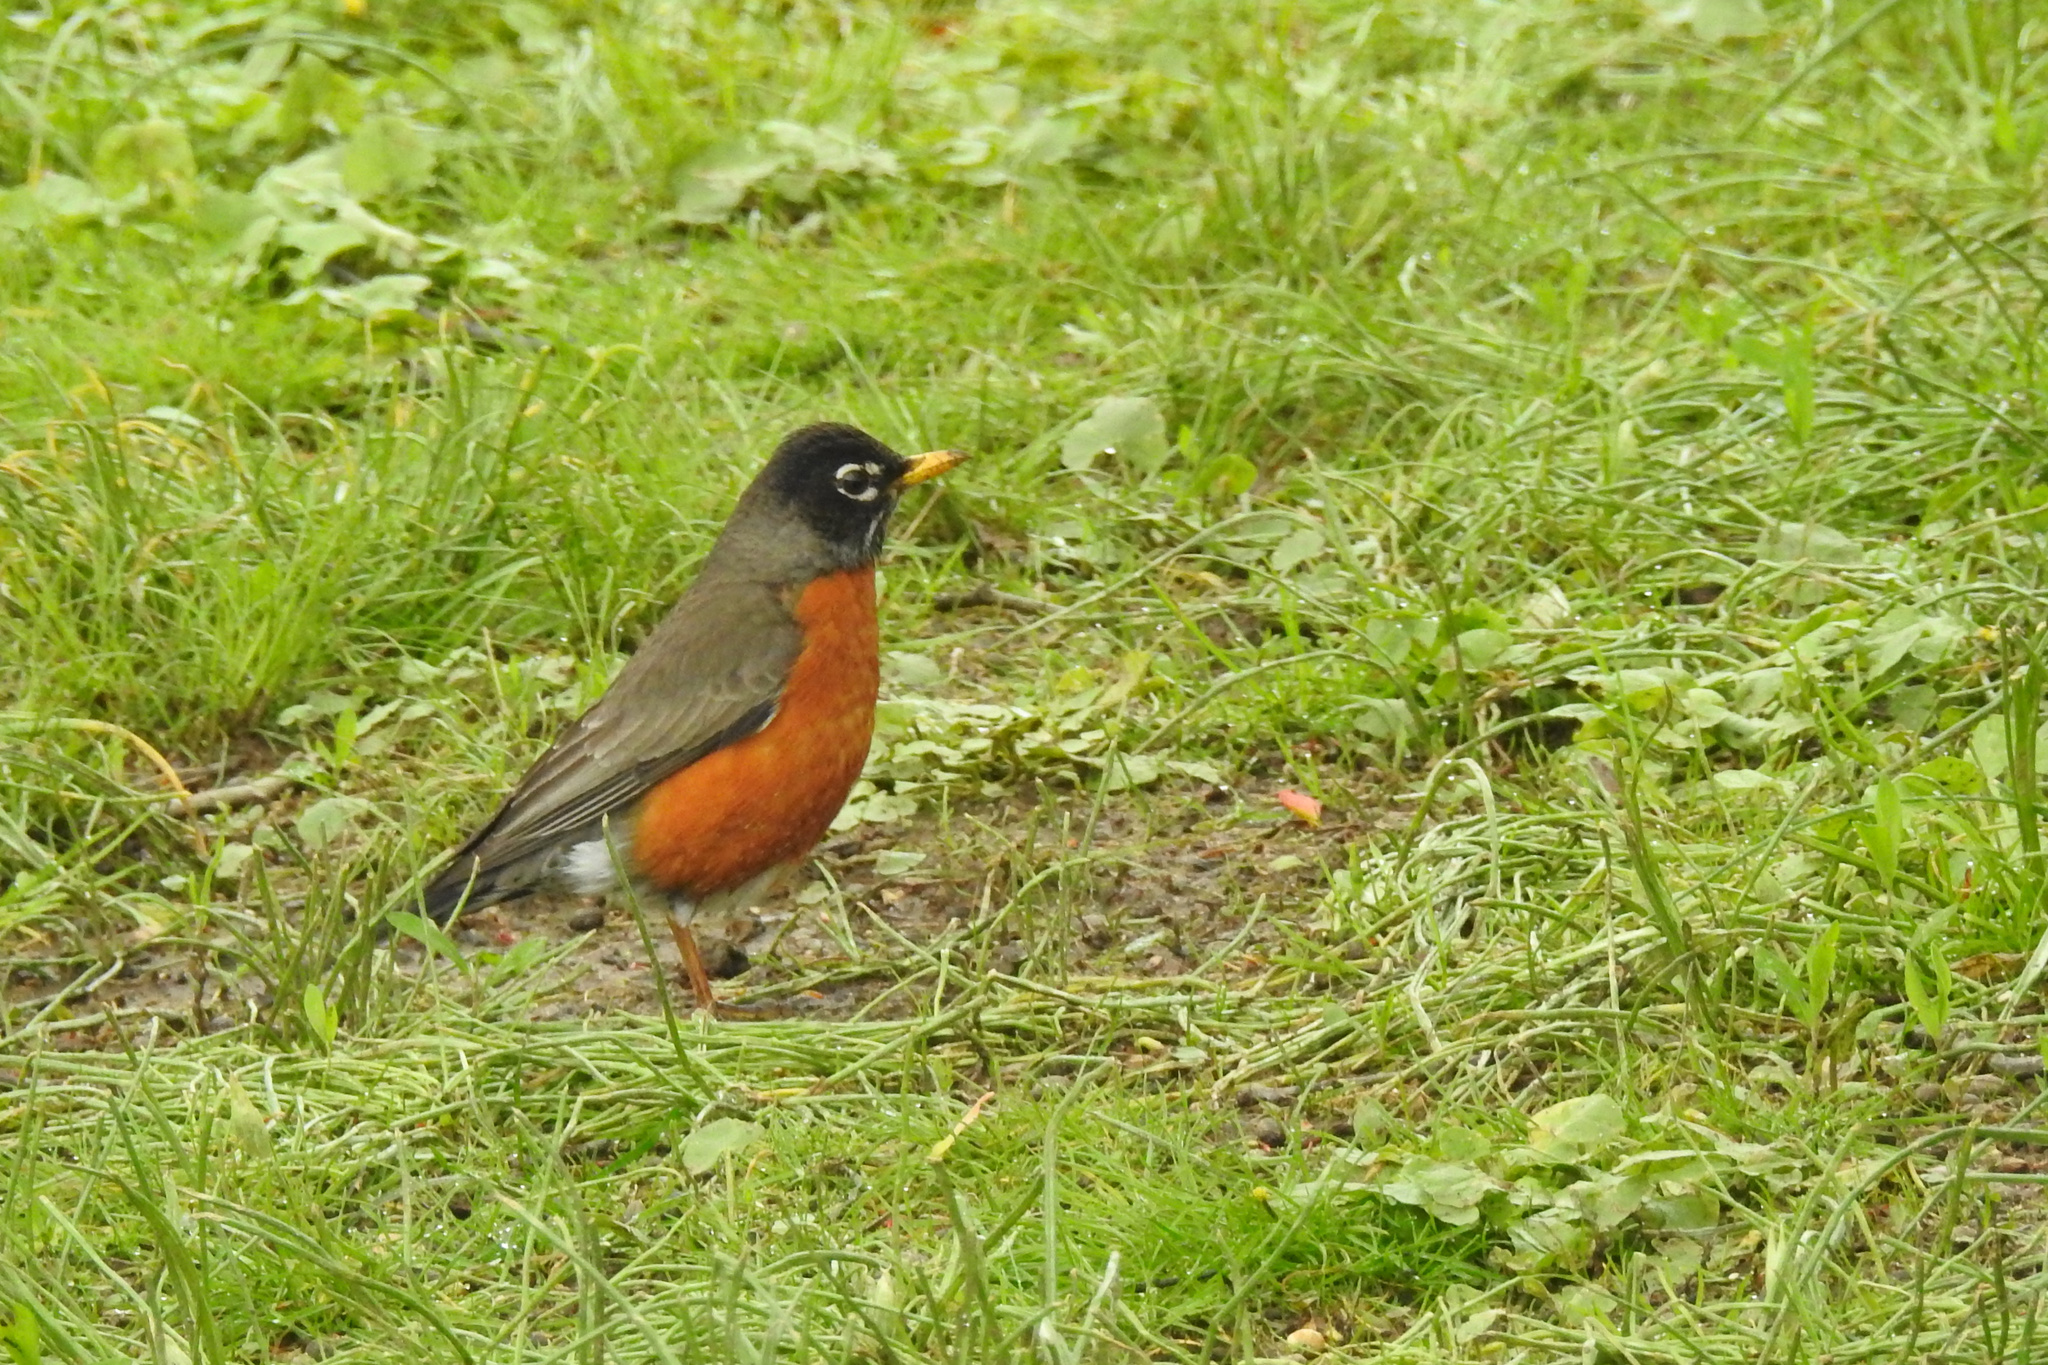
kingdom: Animalia
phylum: Chordata
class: Aves
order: Passeriformes
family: Turdidae
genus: Turdus
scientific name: Turdus migratorius
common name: American robin
